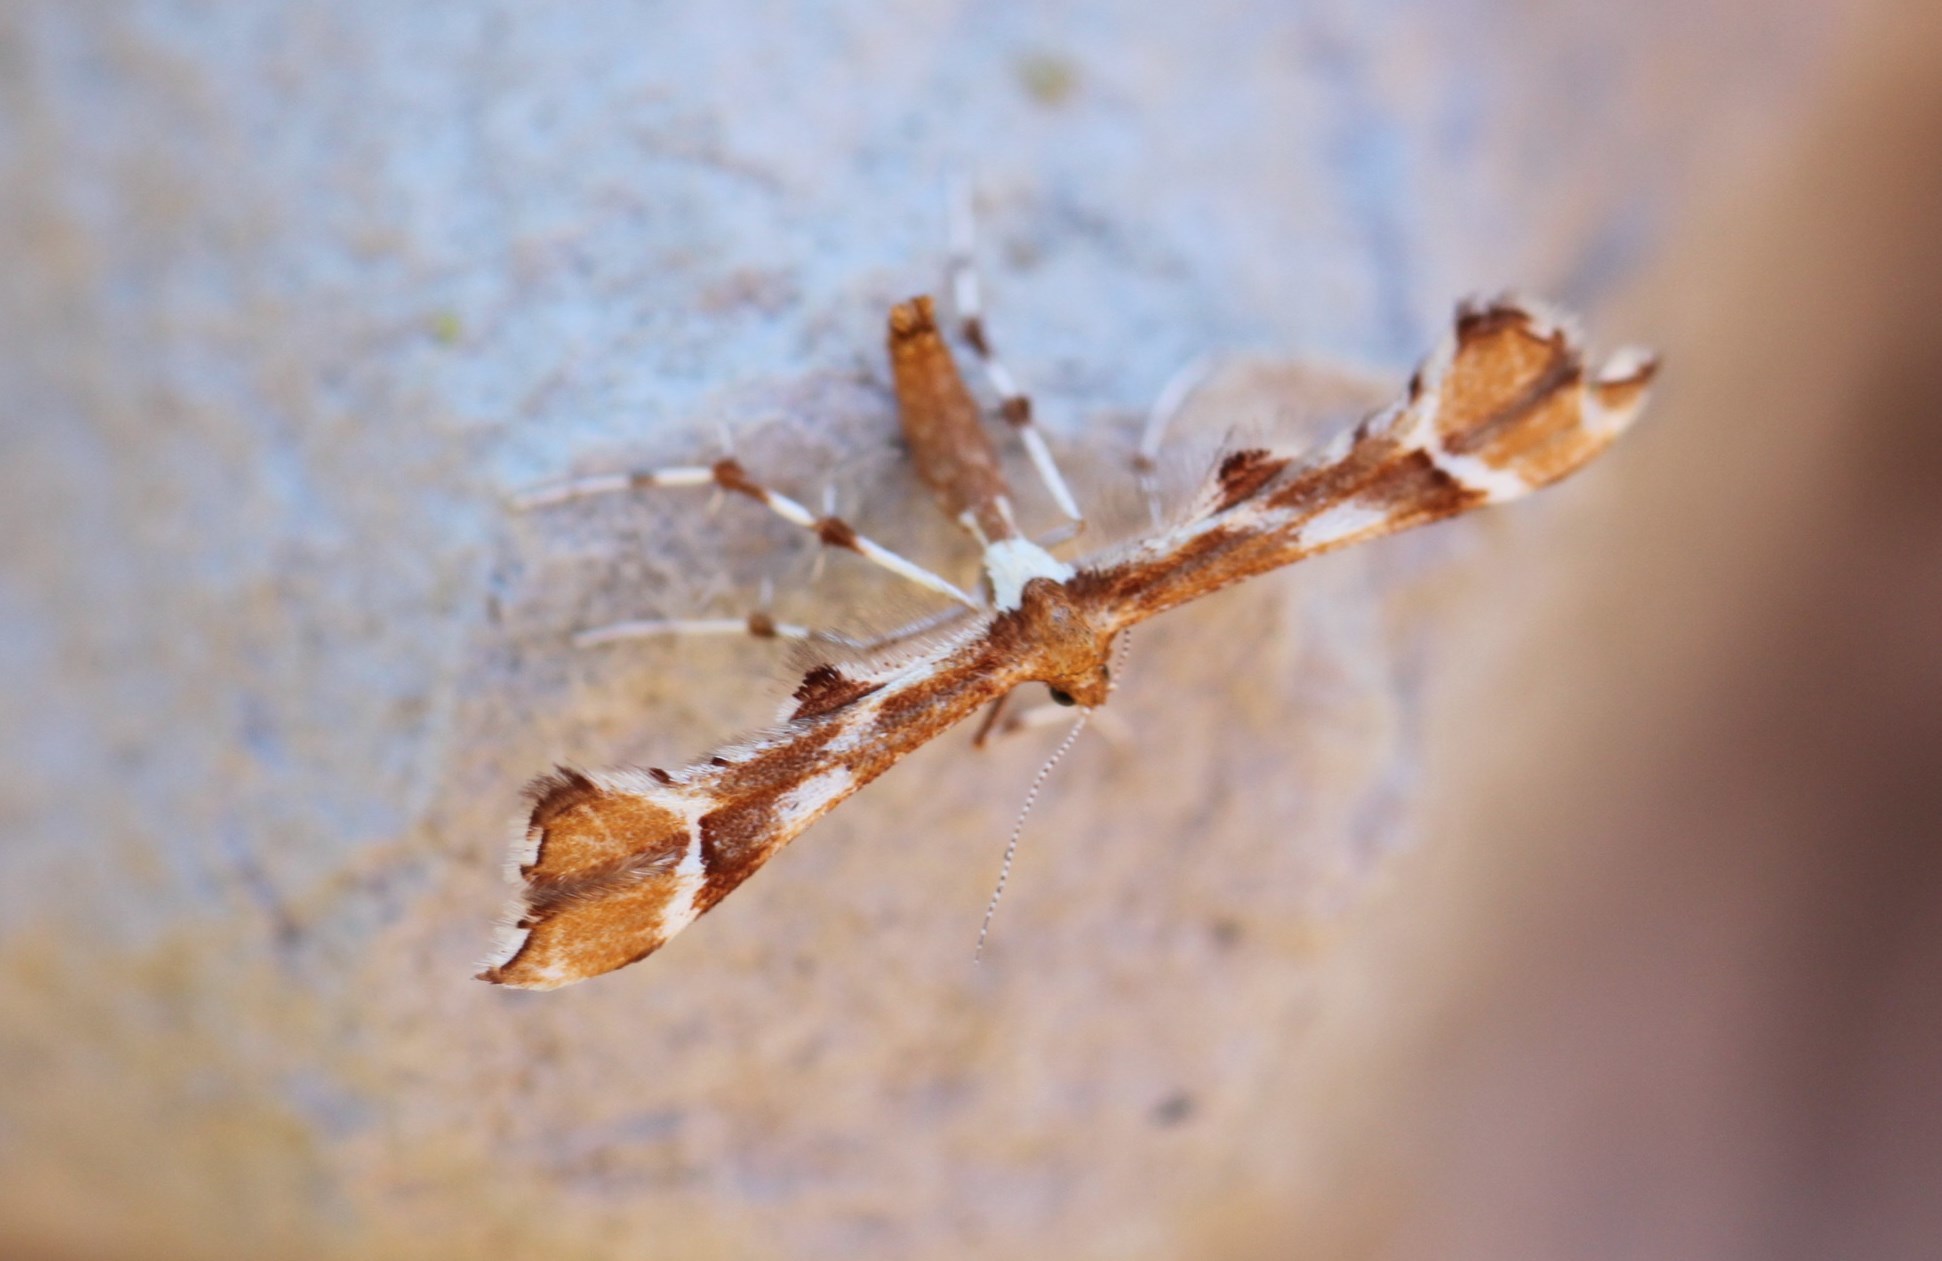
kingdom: Animalia
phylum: Arthropoda
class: Insecta
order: Lepidoptera
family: Pterophoridae
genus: Cnaemidophorus
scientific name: Cnaemidophorus rhododactyla
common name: Rose plume
